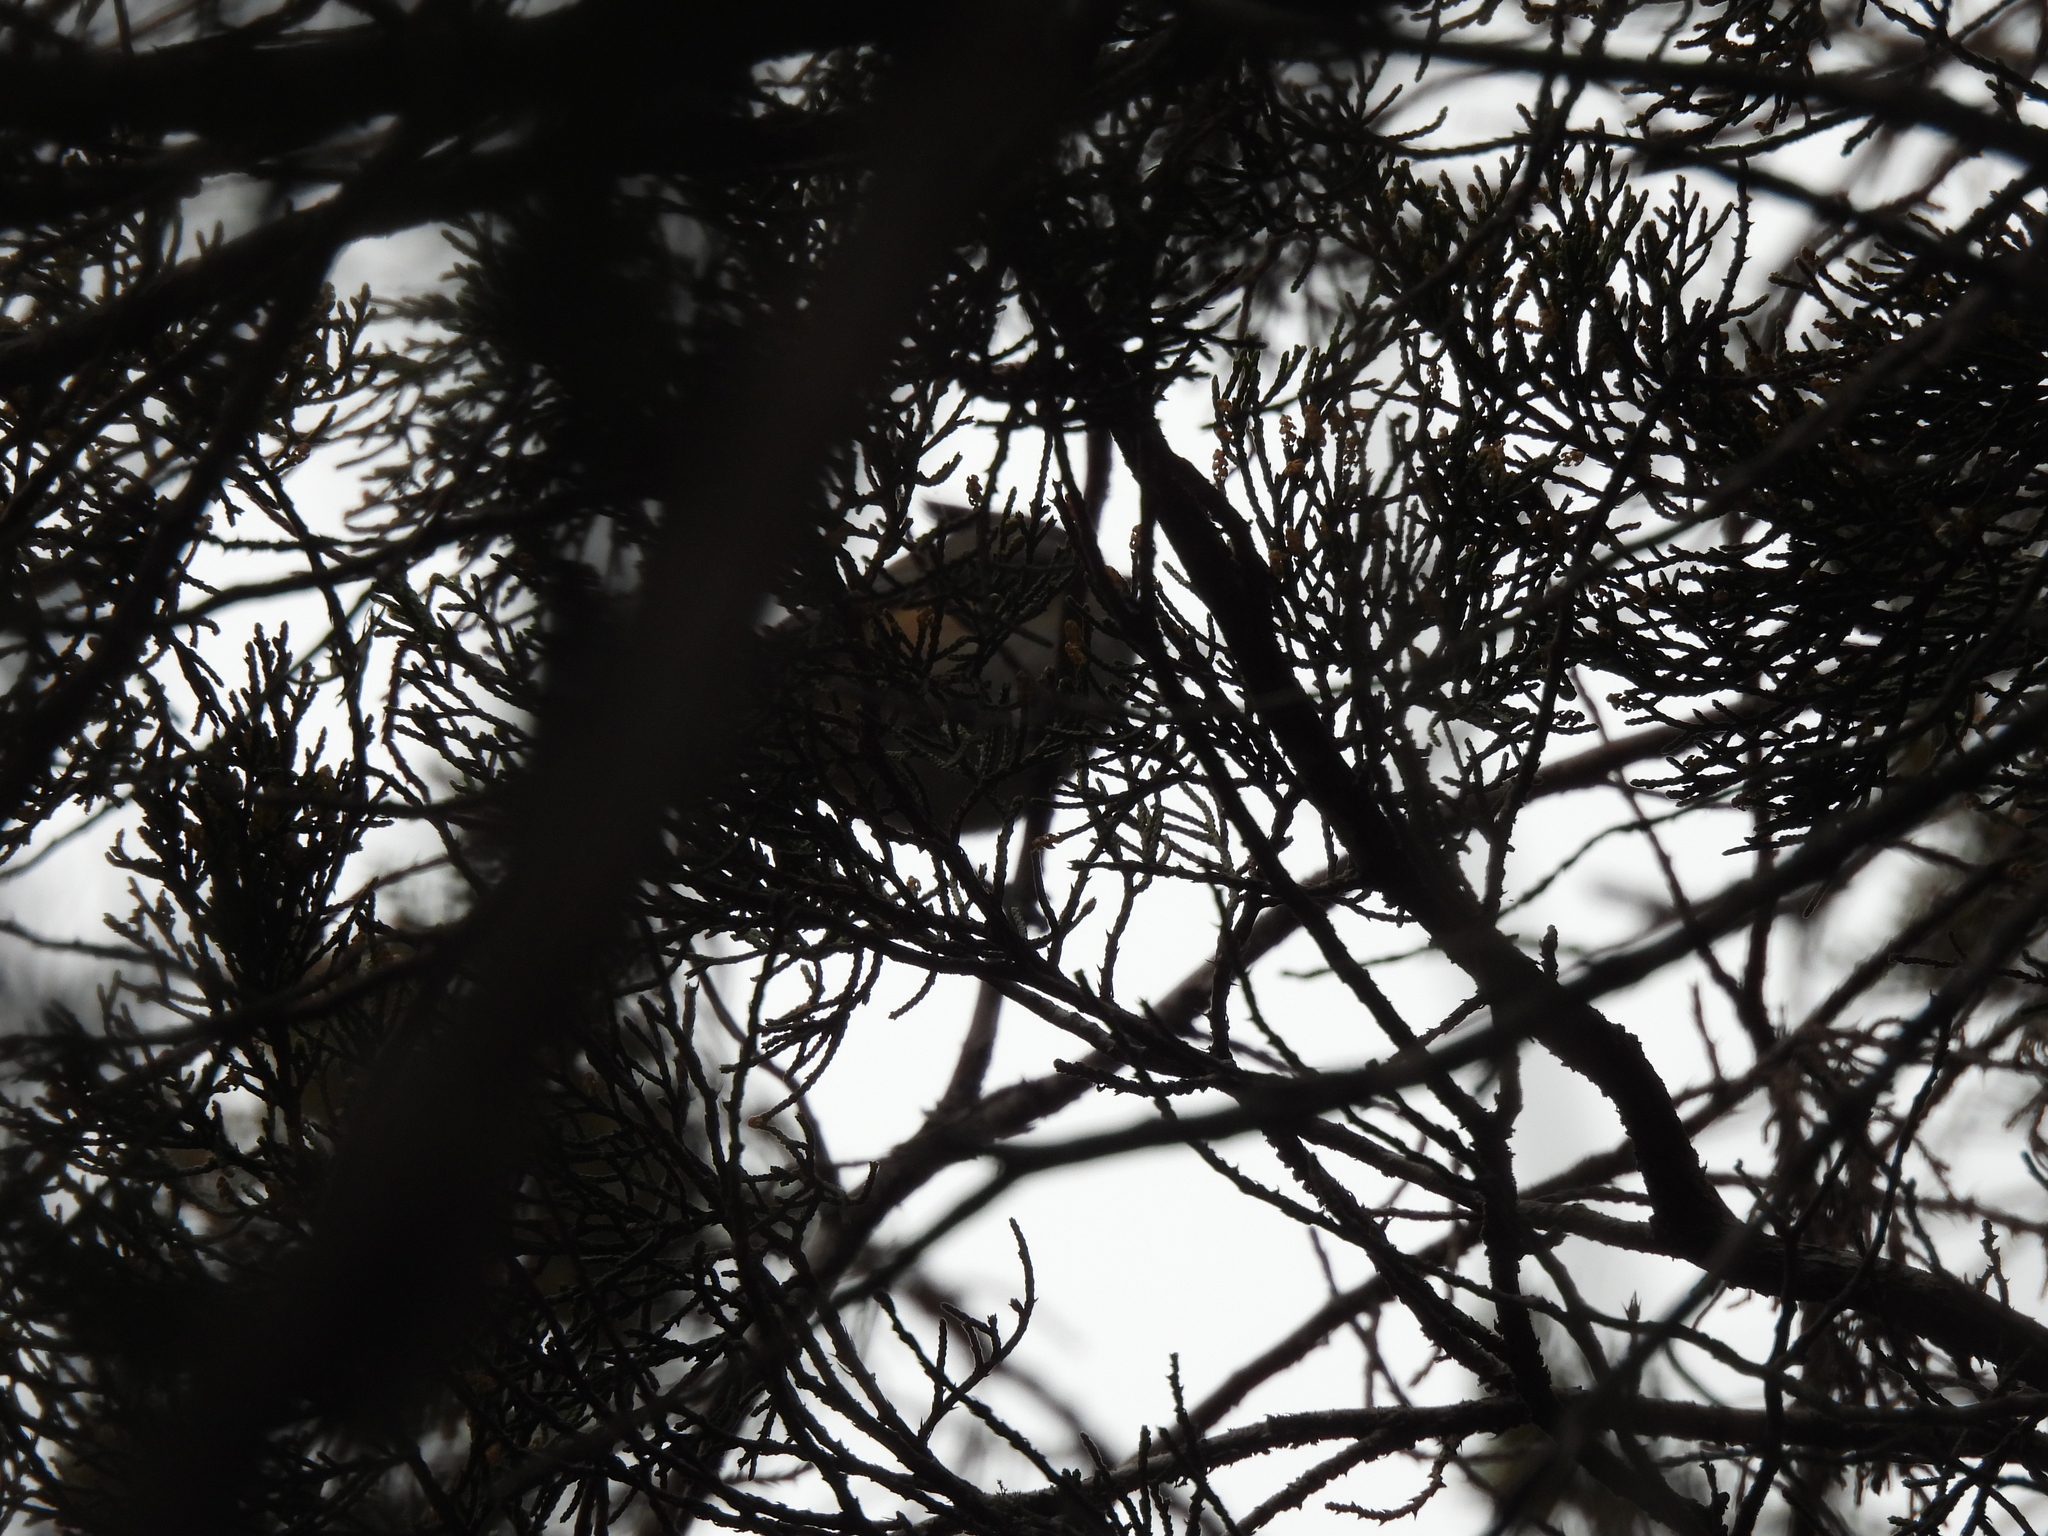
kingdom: Animalia
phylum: Chordata
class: Aves
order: Passeriformes
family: Paridae
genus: Baeolophus
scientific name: Baeolophus atricristatus
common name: Black-crested titmouse
